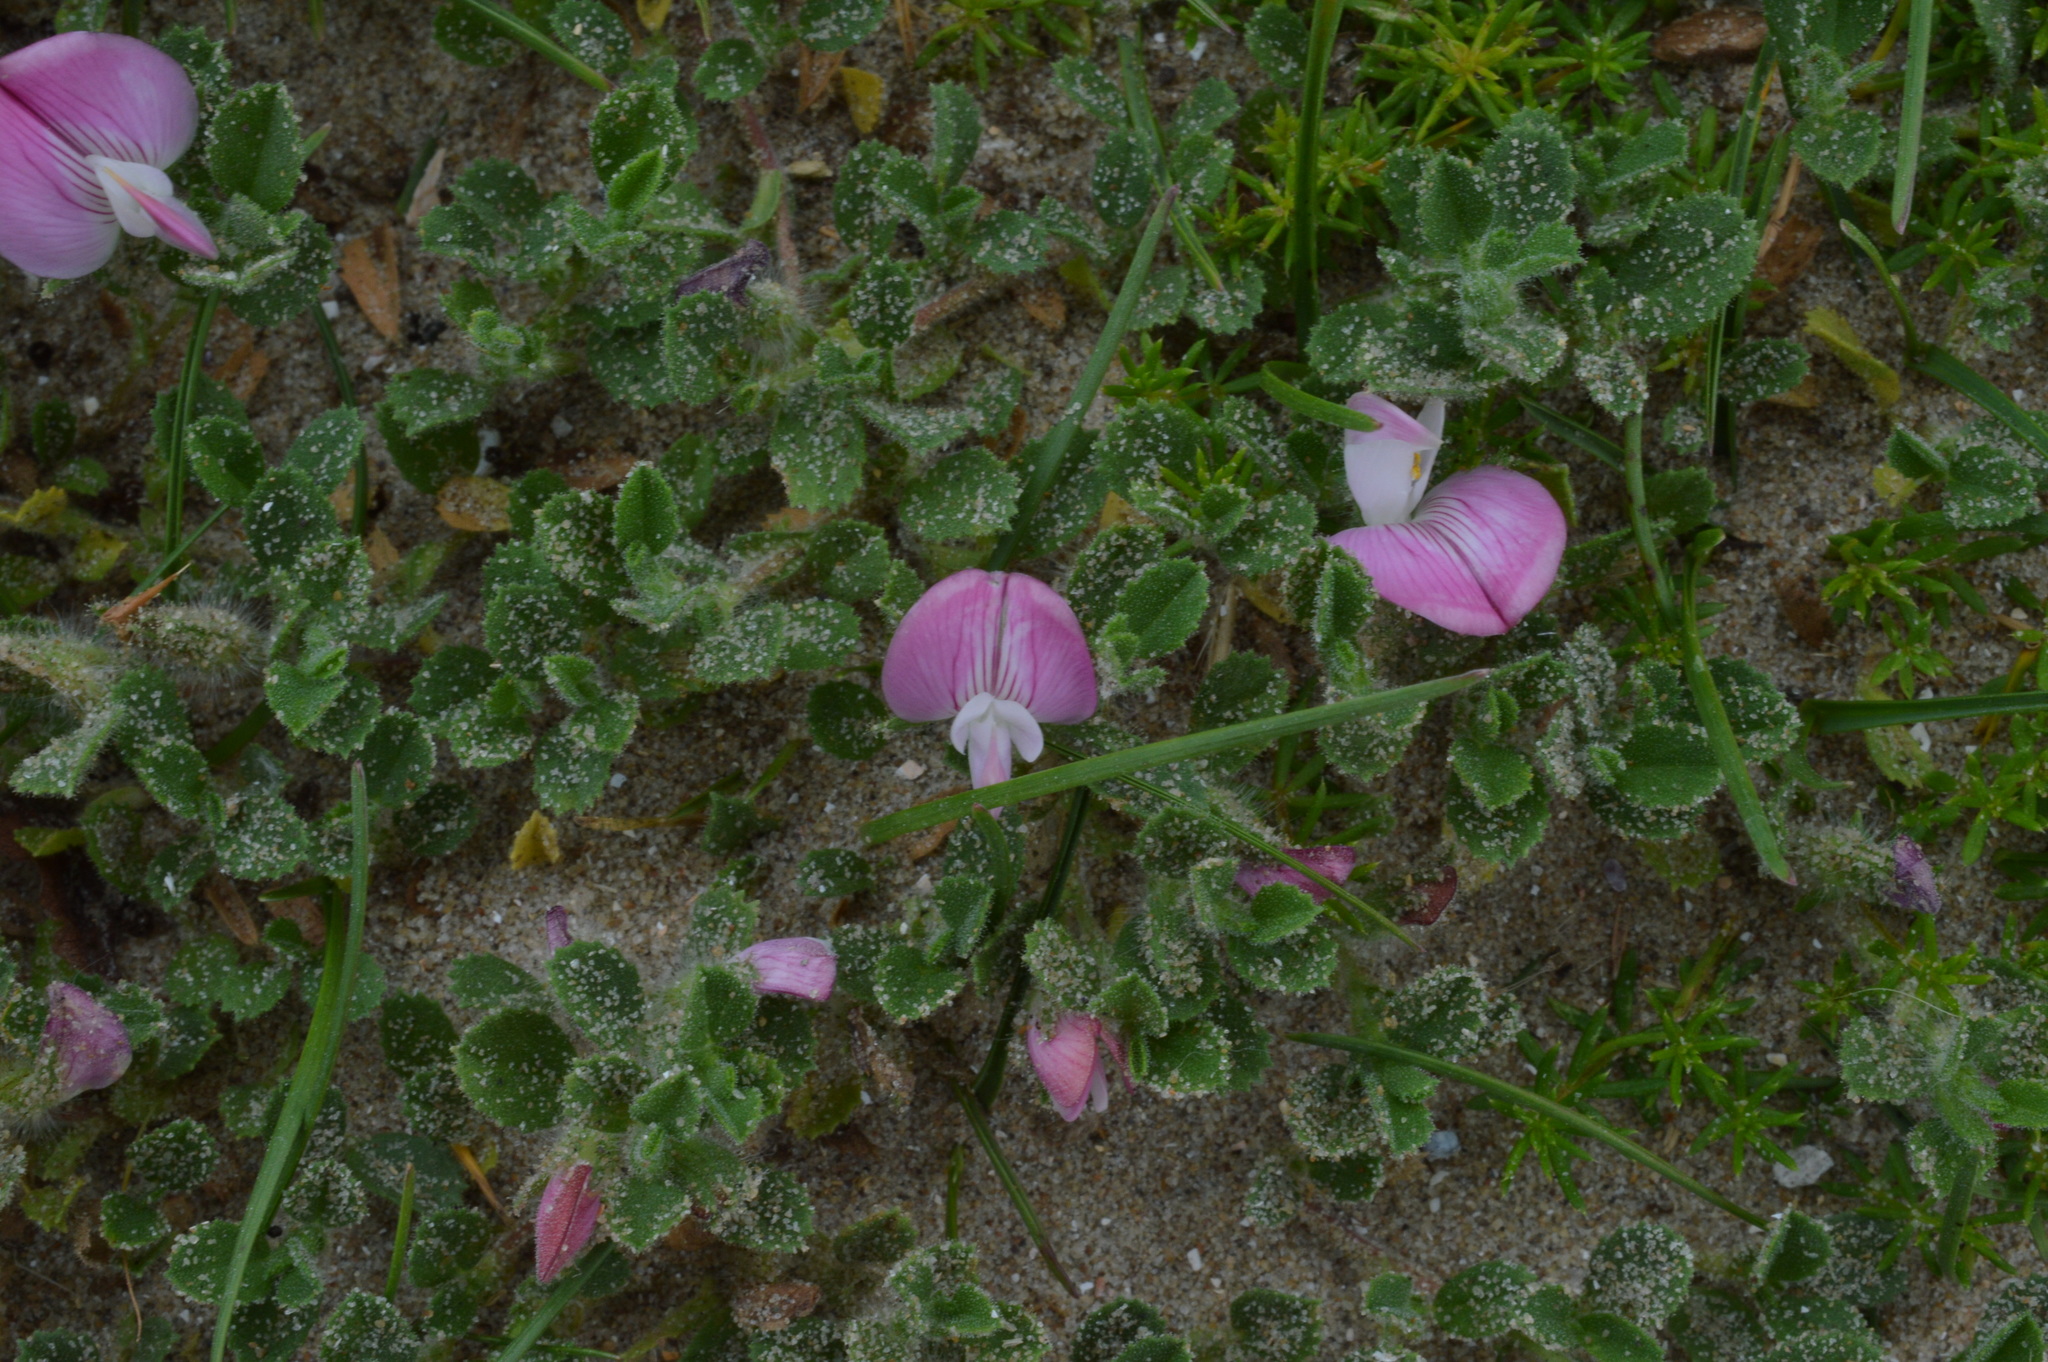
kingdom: Plantae
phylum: Tracheophyta
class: Magnoliopsida
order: Fabales
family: Fabaceae
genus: Ononis
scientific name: Ononis spinosa
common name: Spiny restharrow
